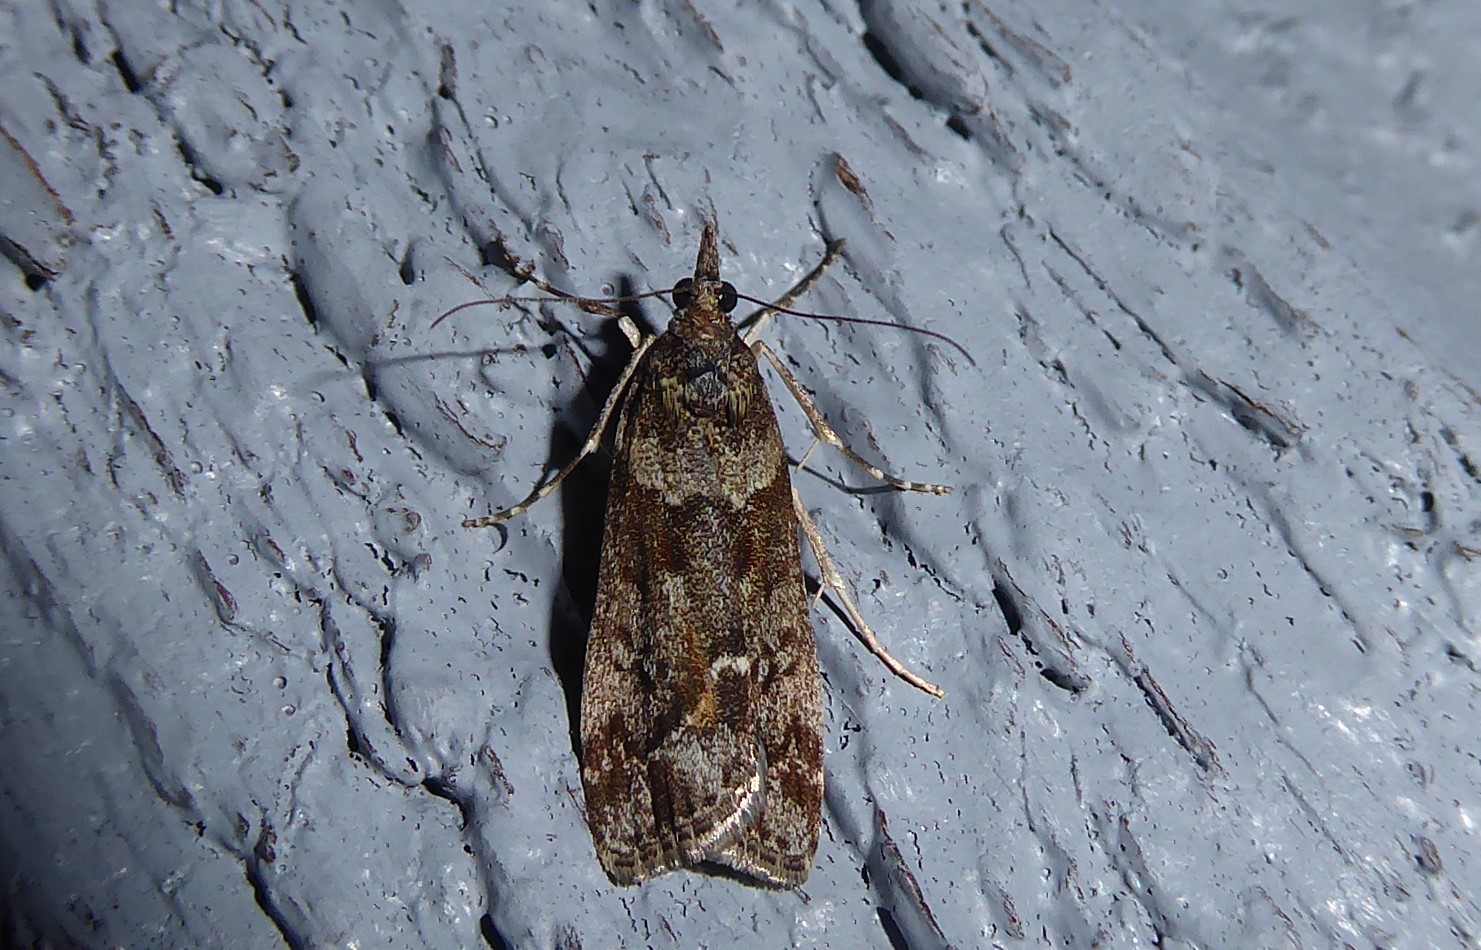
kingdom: Animalia
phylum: Arthropoda
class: Insecta
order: Lepidoptera
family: Crambidae
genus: Eudonia
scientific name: Eudonia submarginalis
